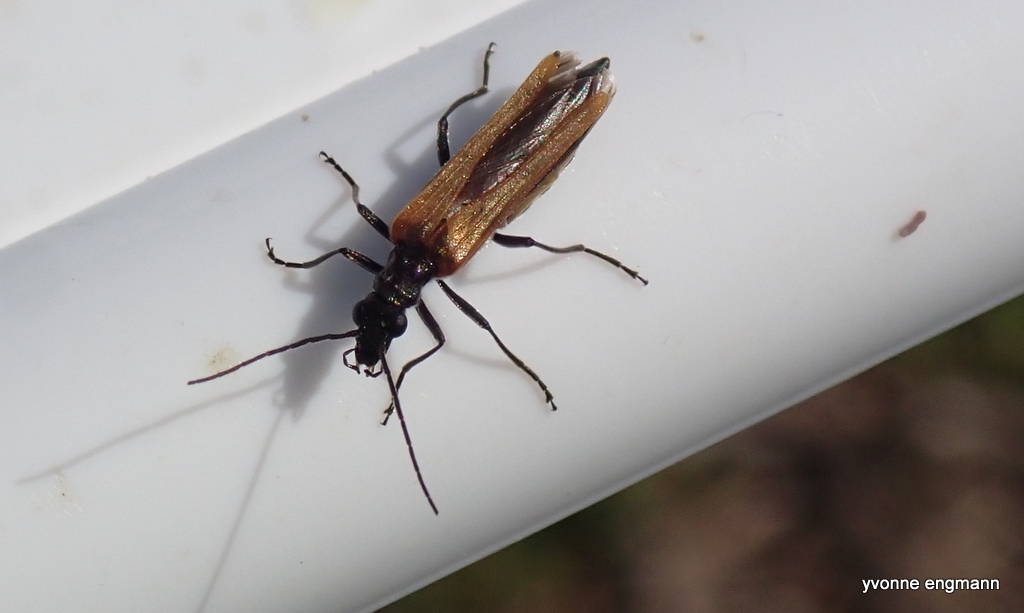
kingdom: Animalia
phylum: Arthropoda
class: Insecta
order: Coleoptera
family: Oedemeridae
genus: Oedemera
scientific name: Oedemera femorata
